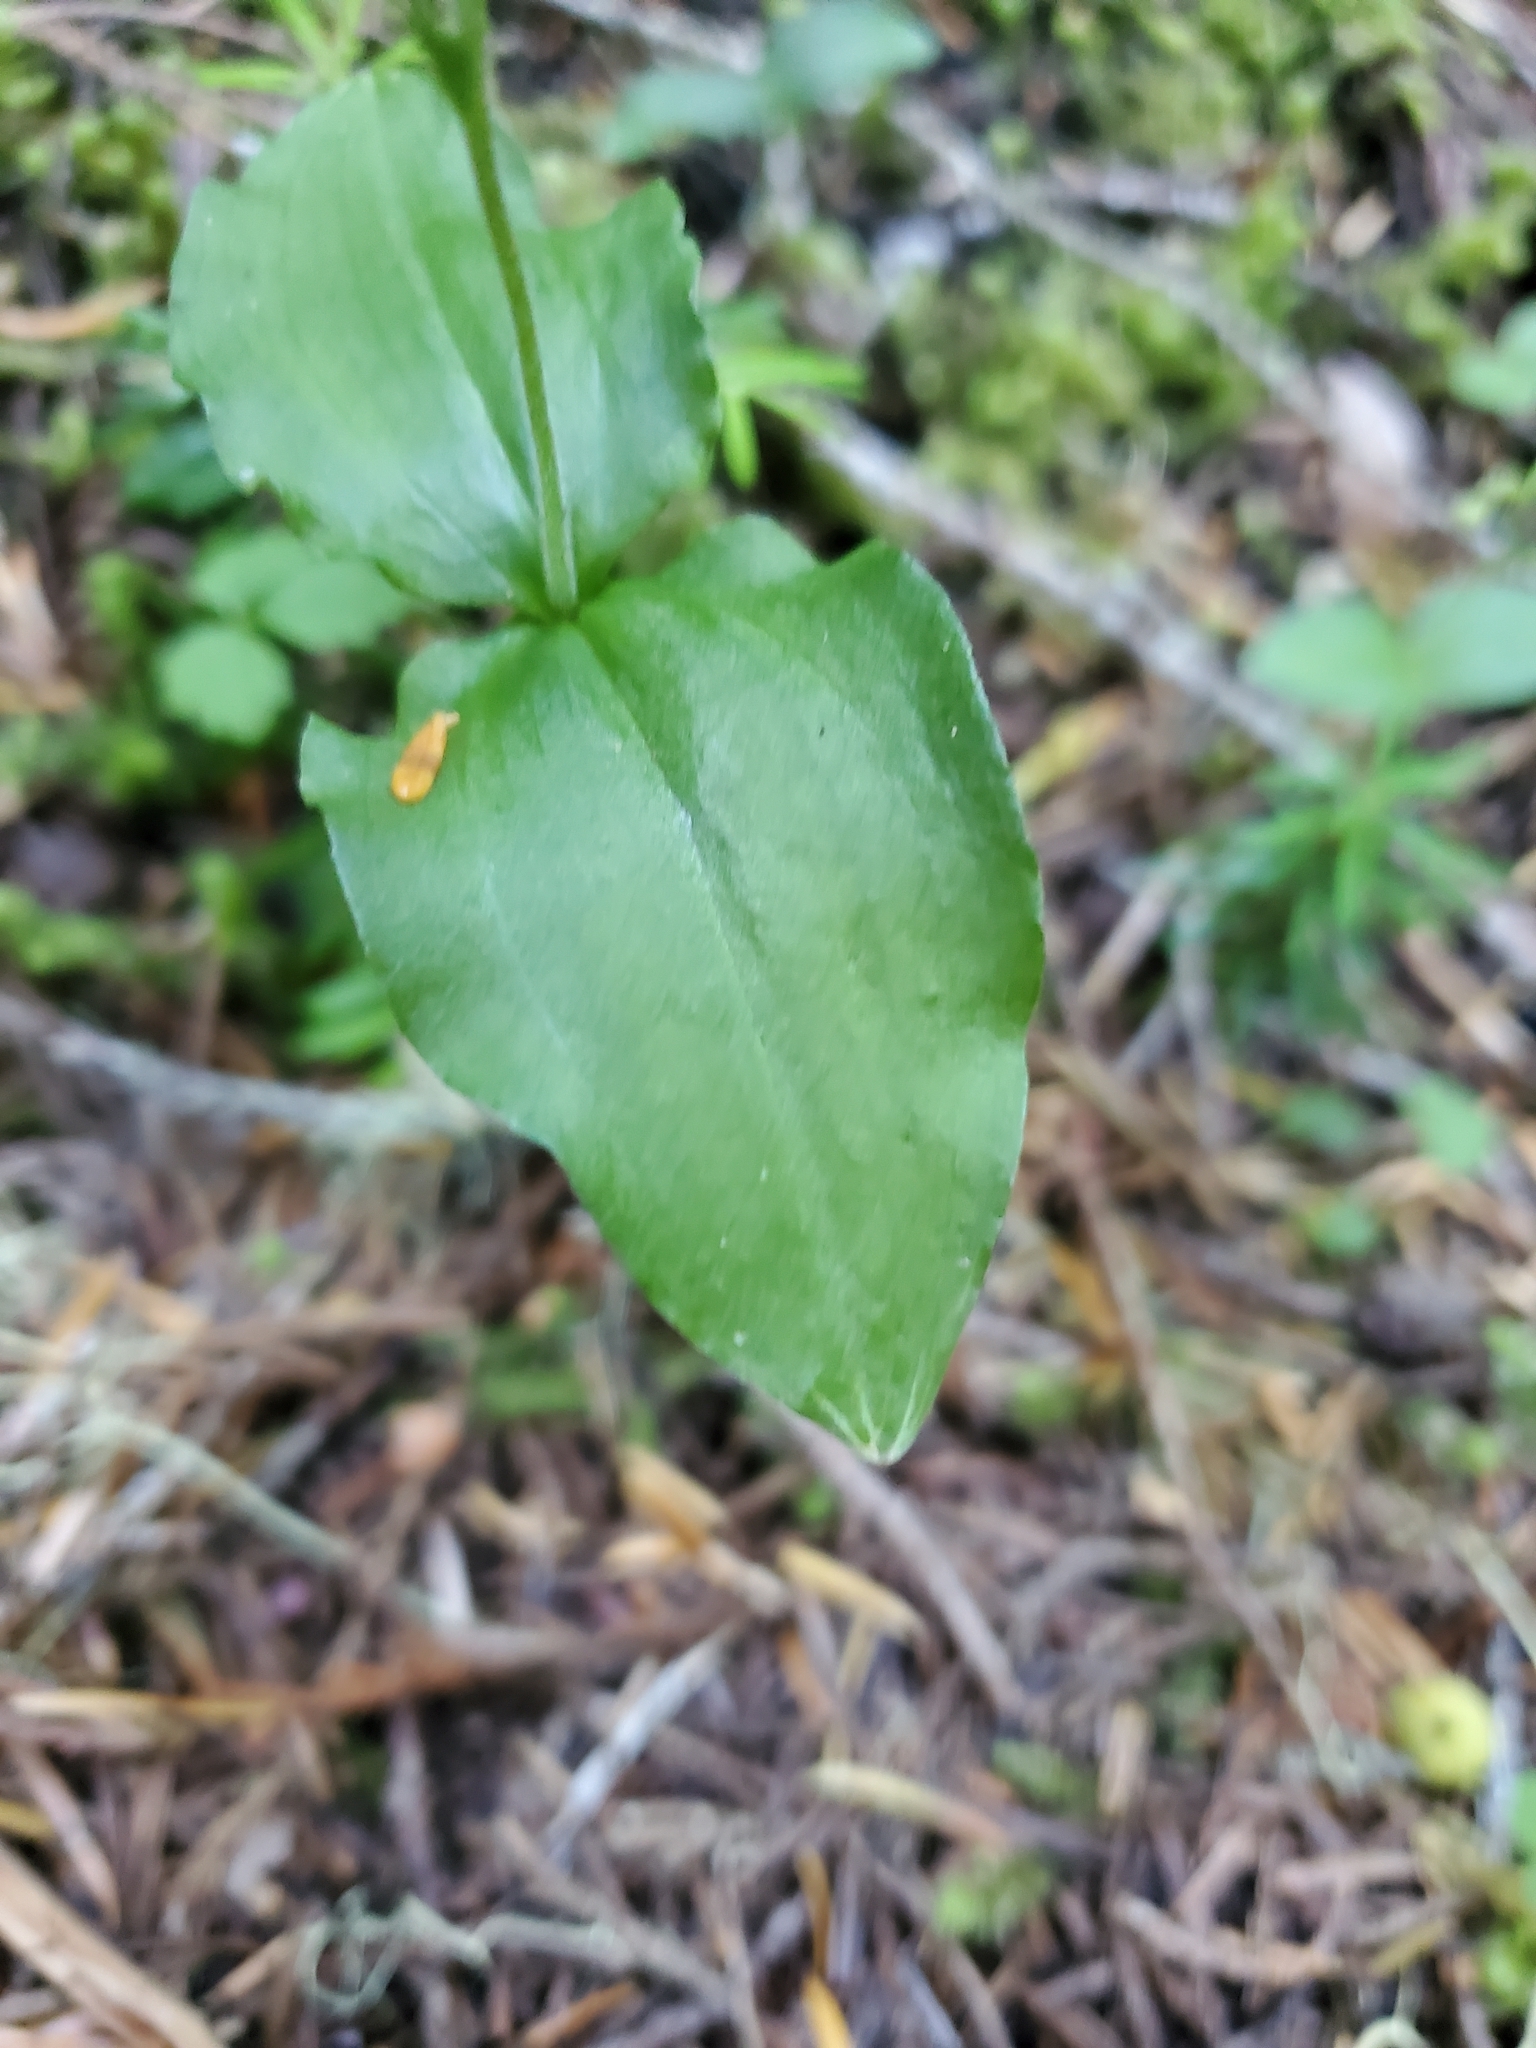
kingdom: Plantae
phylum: Tracheophyta
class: Liliopsida
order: Asparagales
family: Orchidaceae
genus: Neottia
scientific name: Neottia banksiana
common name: Northwestern twayblade
